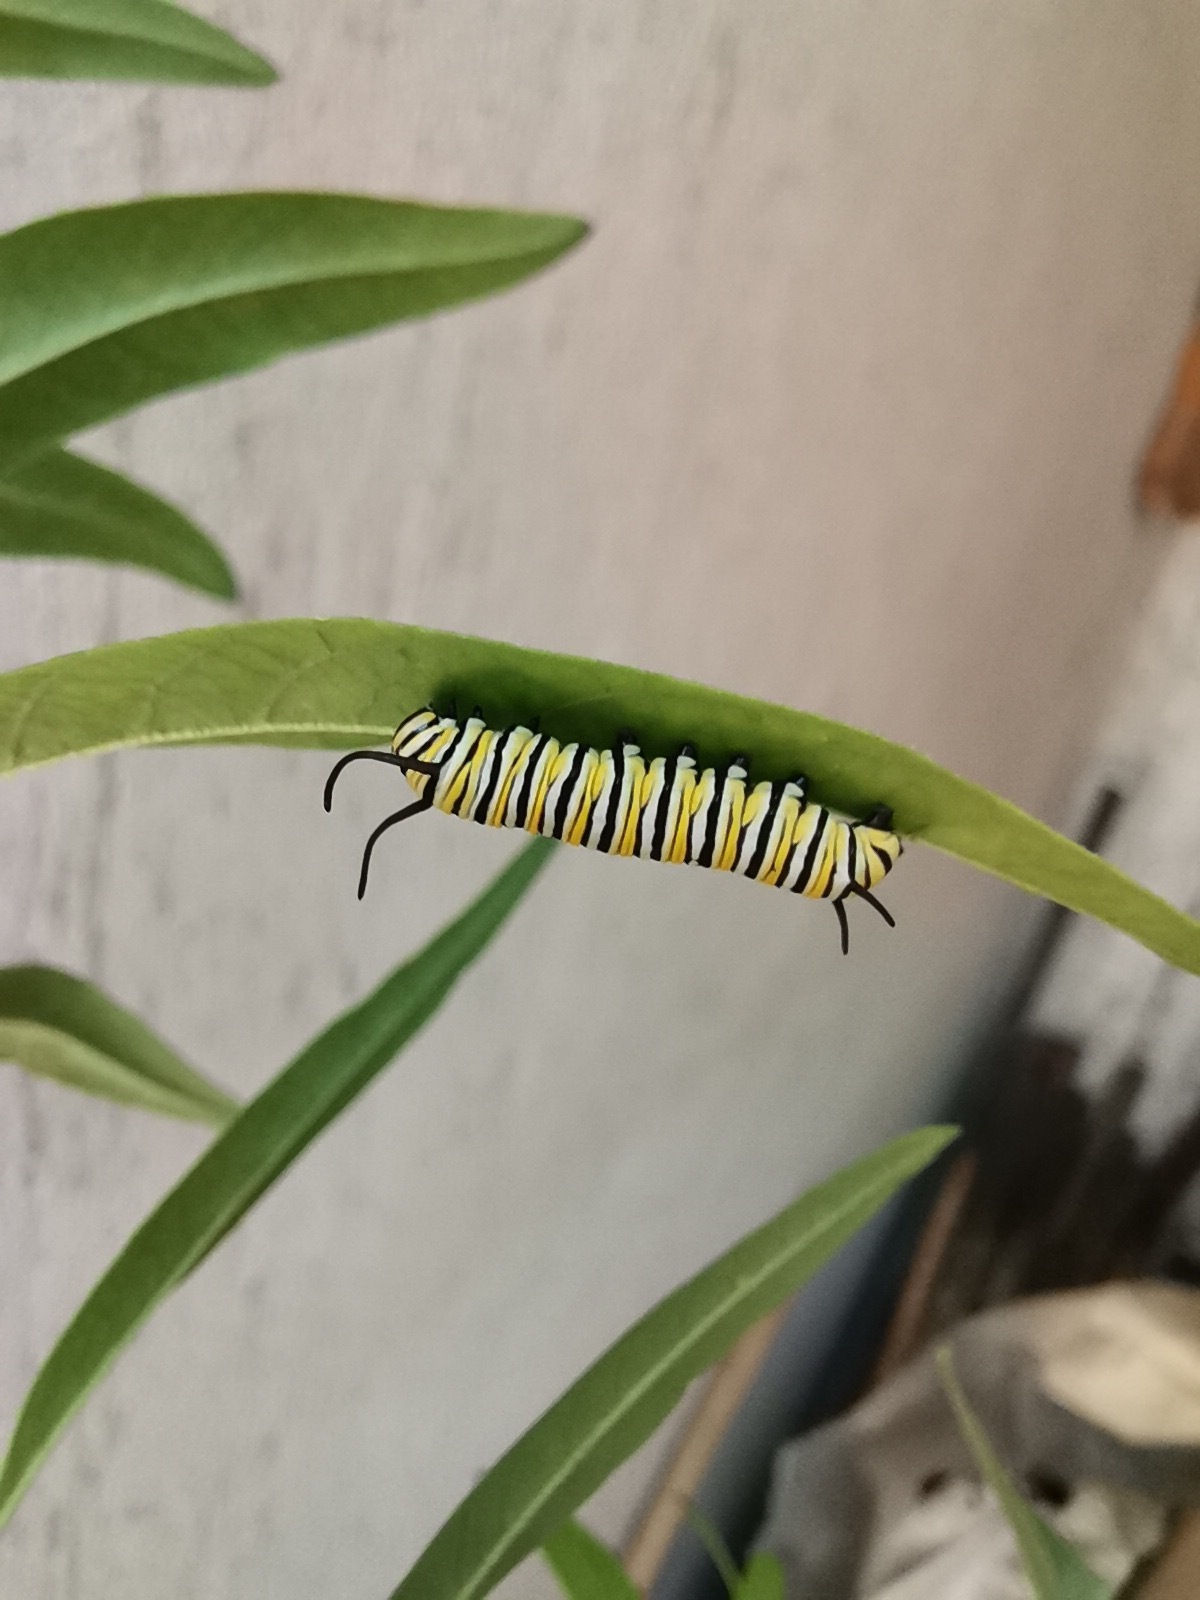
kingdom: Animalia
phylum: Arthropoda
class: Insecta
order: Lepidoptera
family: Nymphalidae
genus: Danaus
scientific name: Danaus plexippus
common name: Monarch
